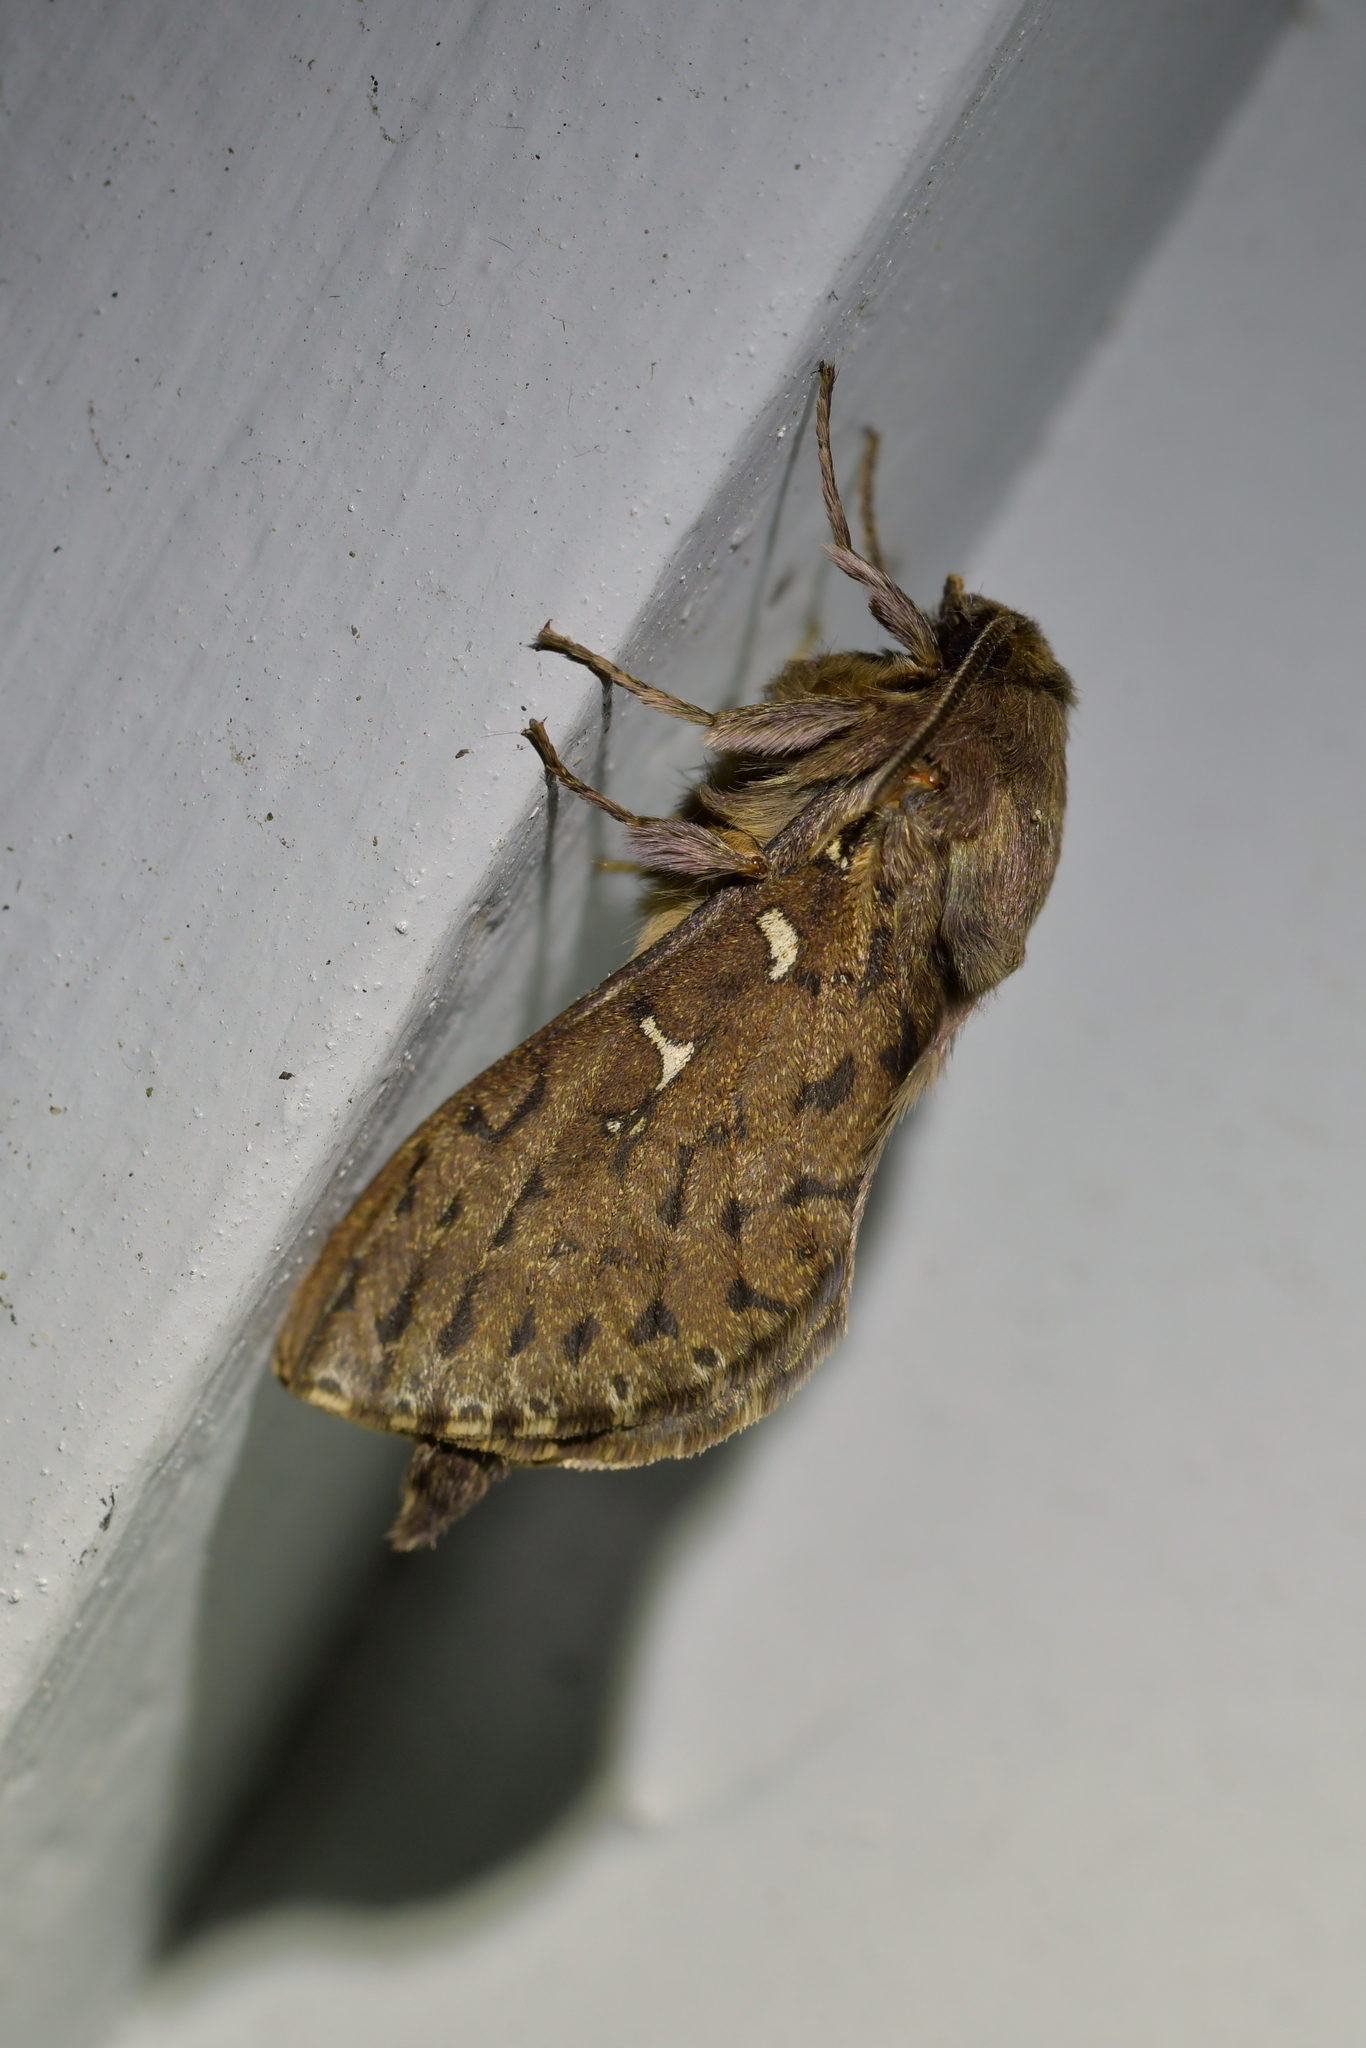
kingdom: Animalia
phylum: Arthropoda
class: Insecta
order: Lepidoptera
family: Hepialidae
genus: Wiseana
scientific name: Wiseana cervinata
